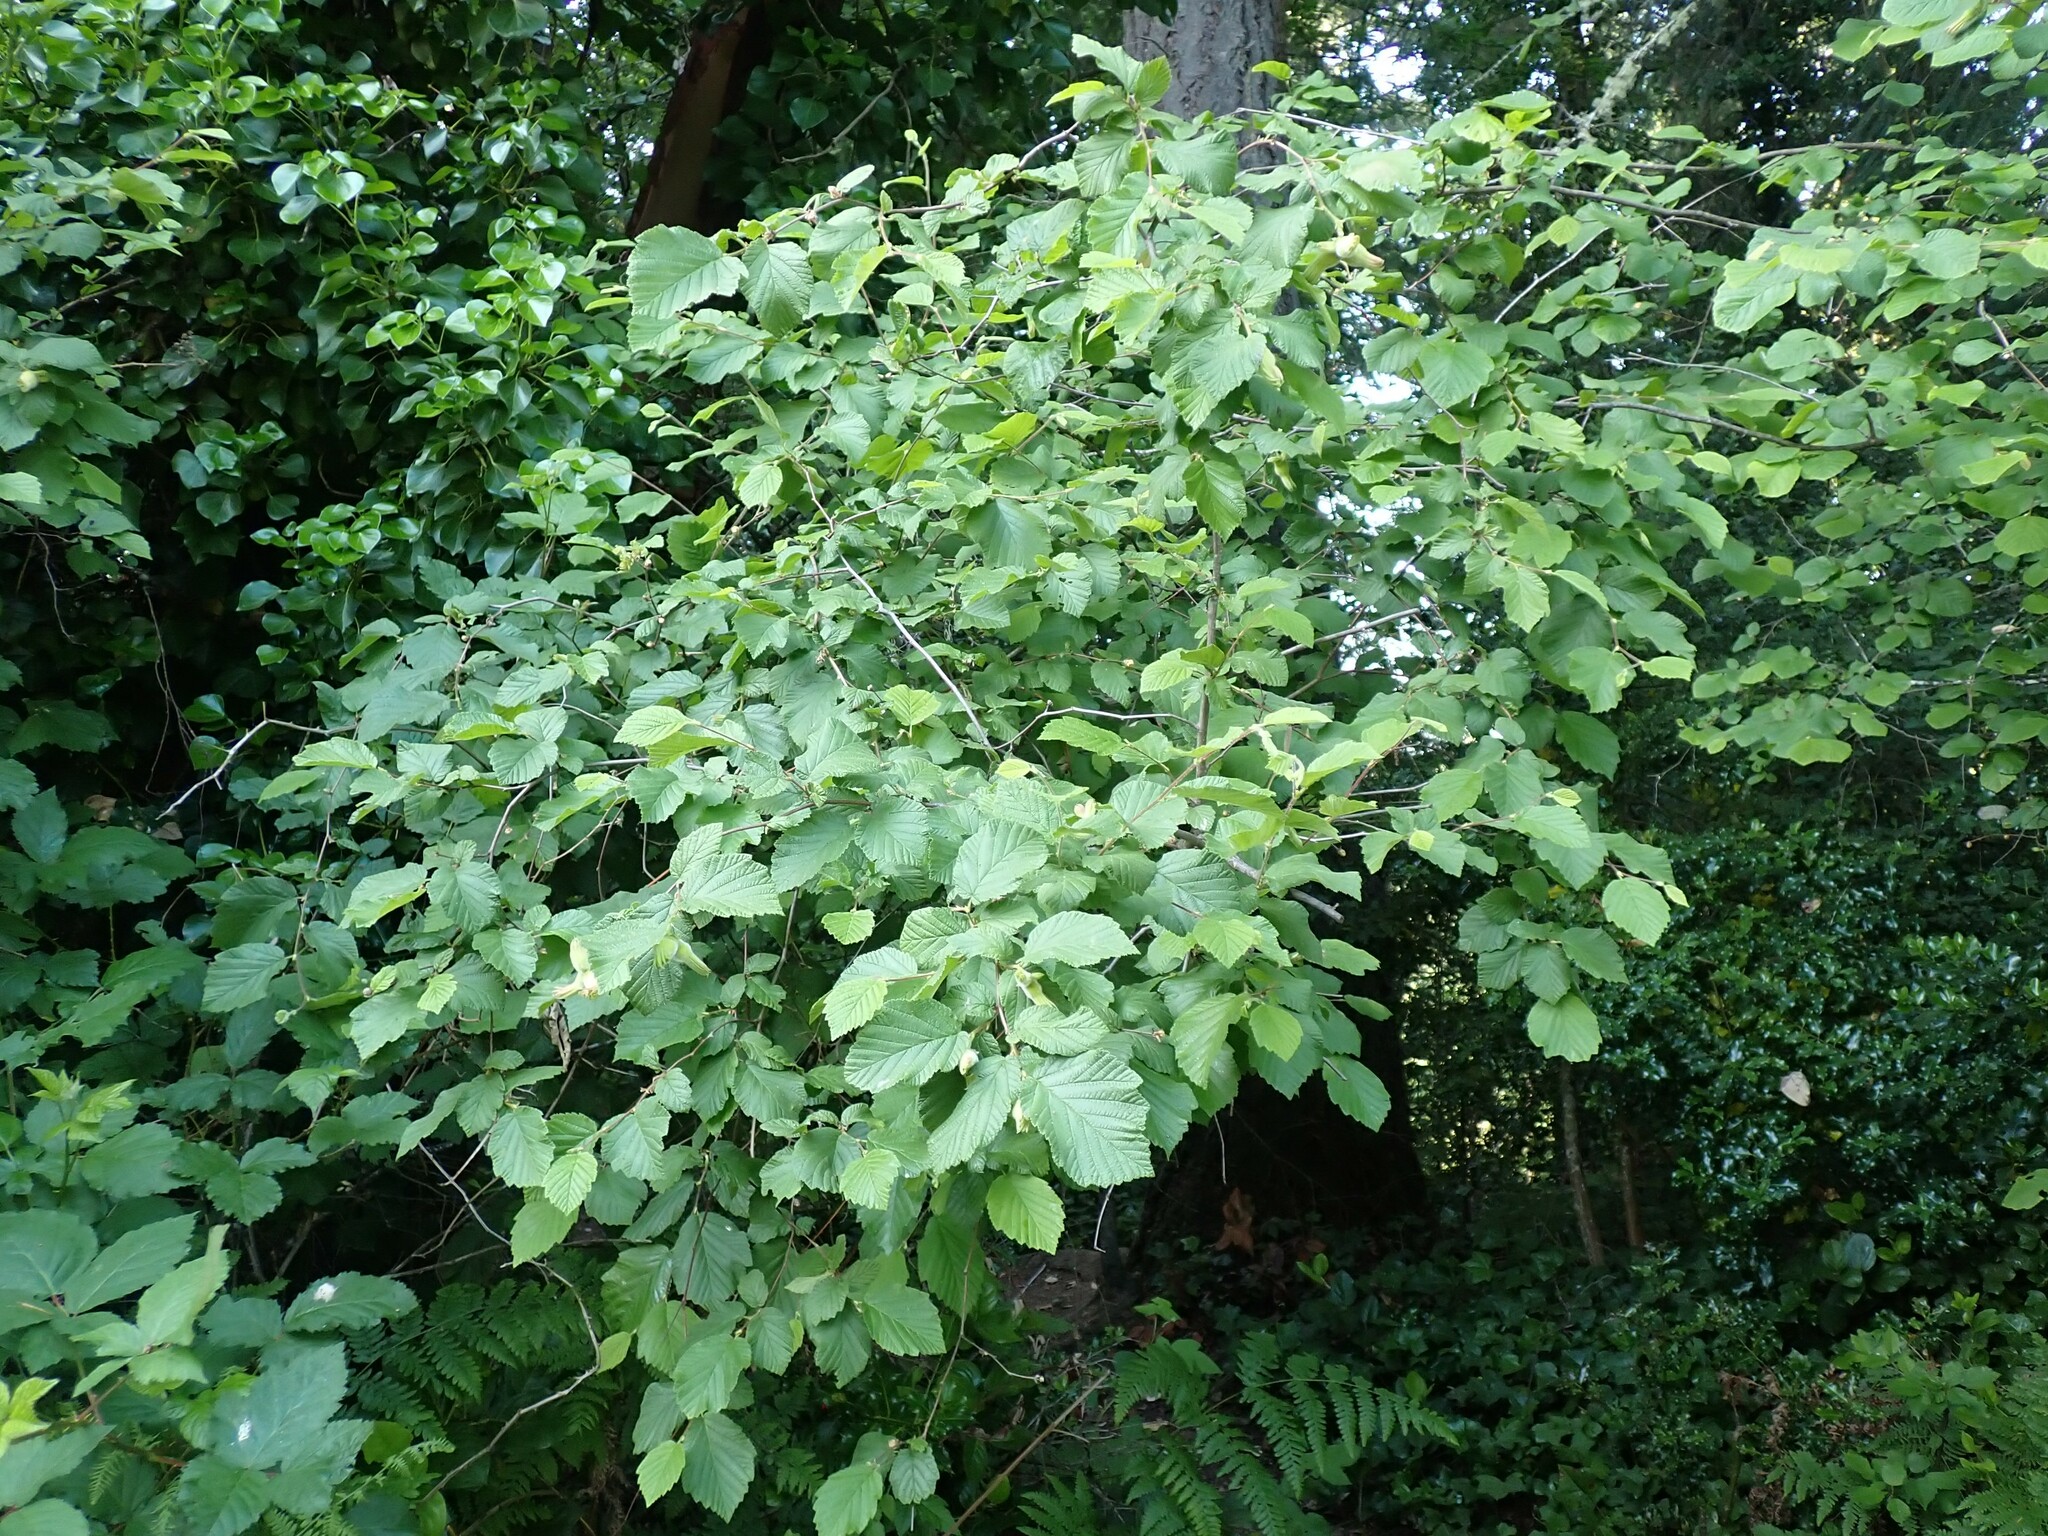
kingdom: Plantae
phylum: Tracheophyta
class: Magnoliopsida
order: Fagales
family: Betulaceae
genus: Corylus
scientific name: Corylus cornuta
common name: Beaked hazel
